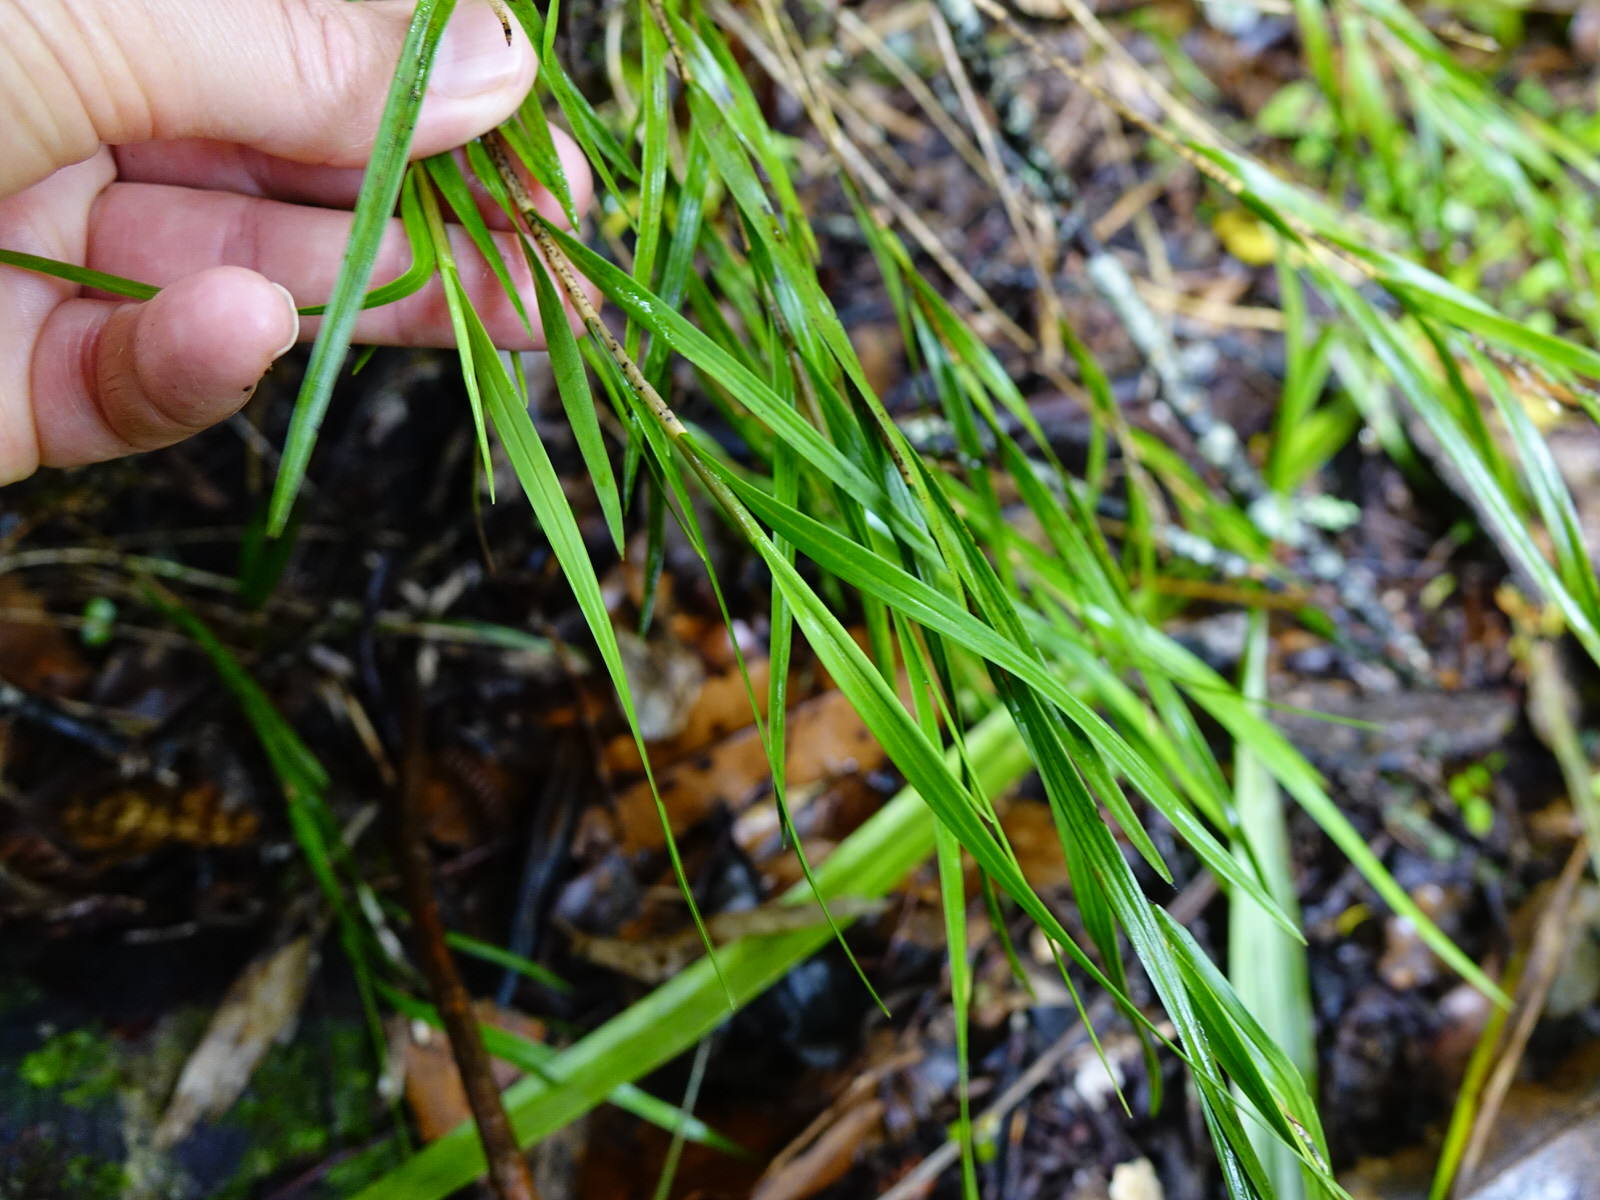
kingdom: Plantae
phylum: Tracheophyta
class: Liliopsida
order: Asparagales
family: Orchidaceae
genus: Earina
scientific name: Earina autumnalis
